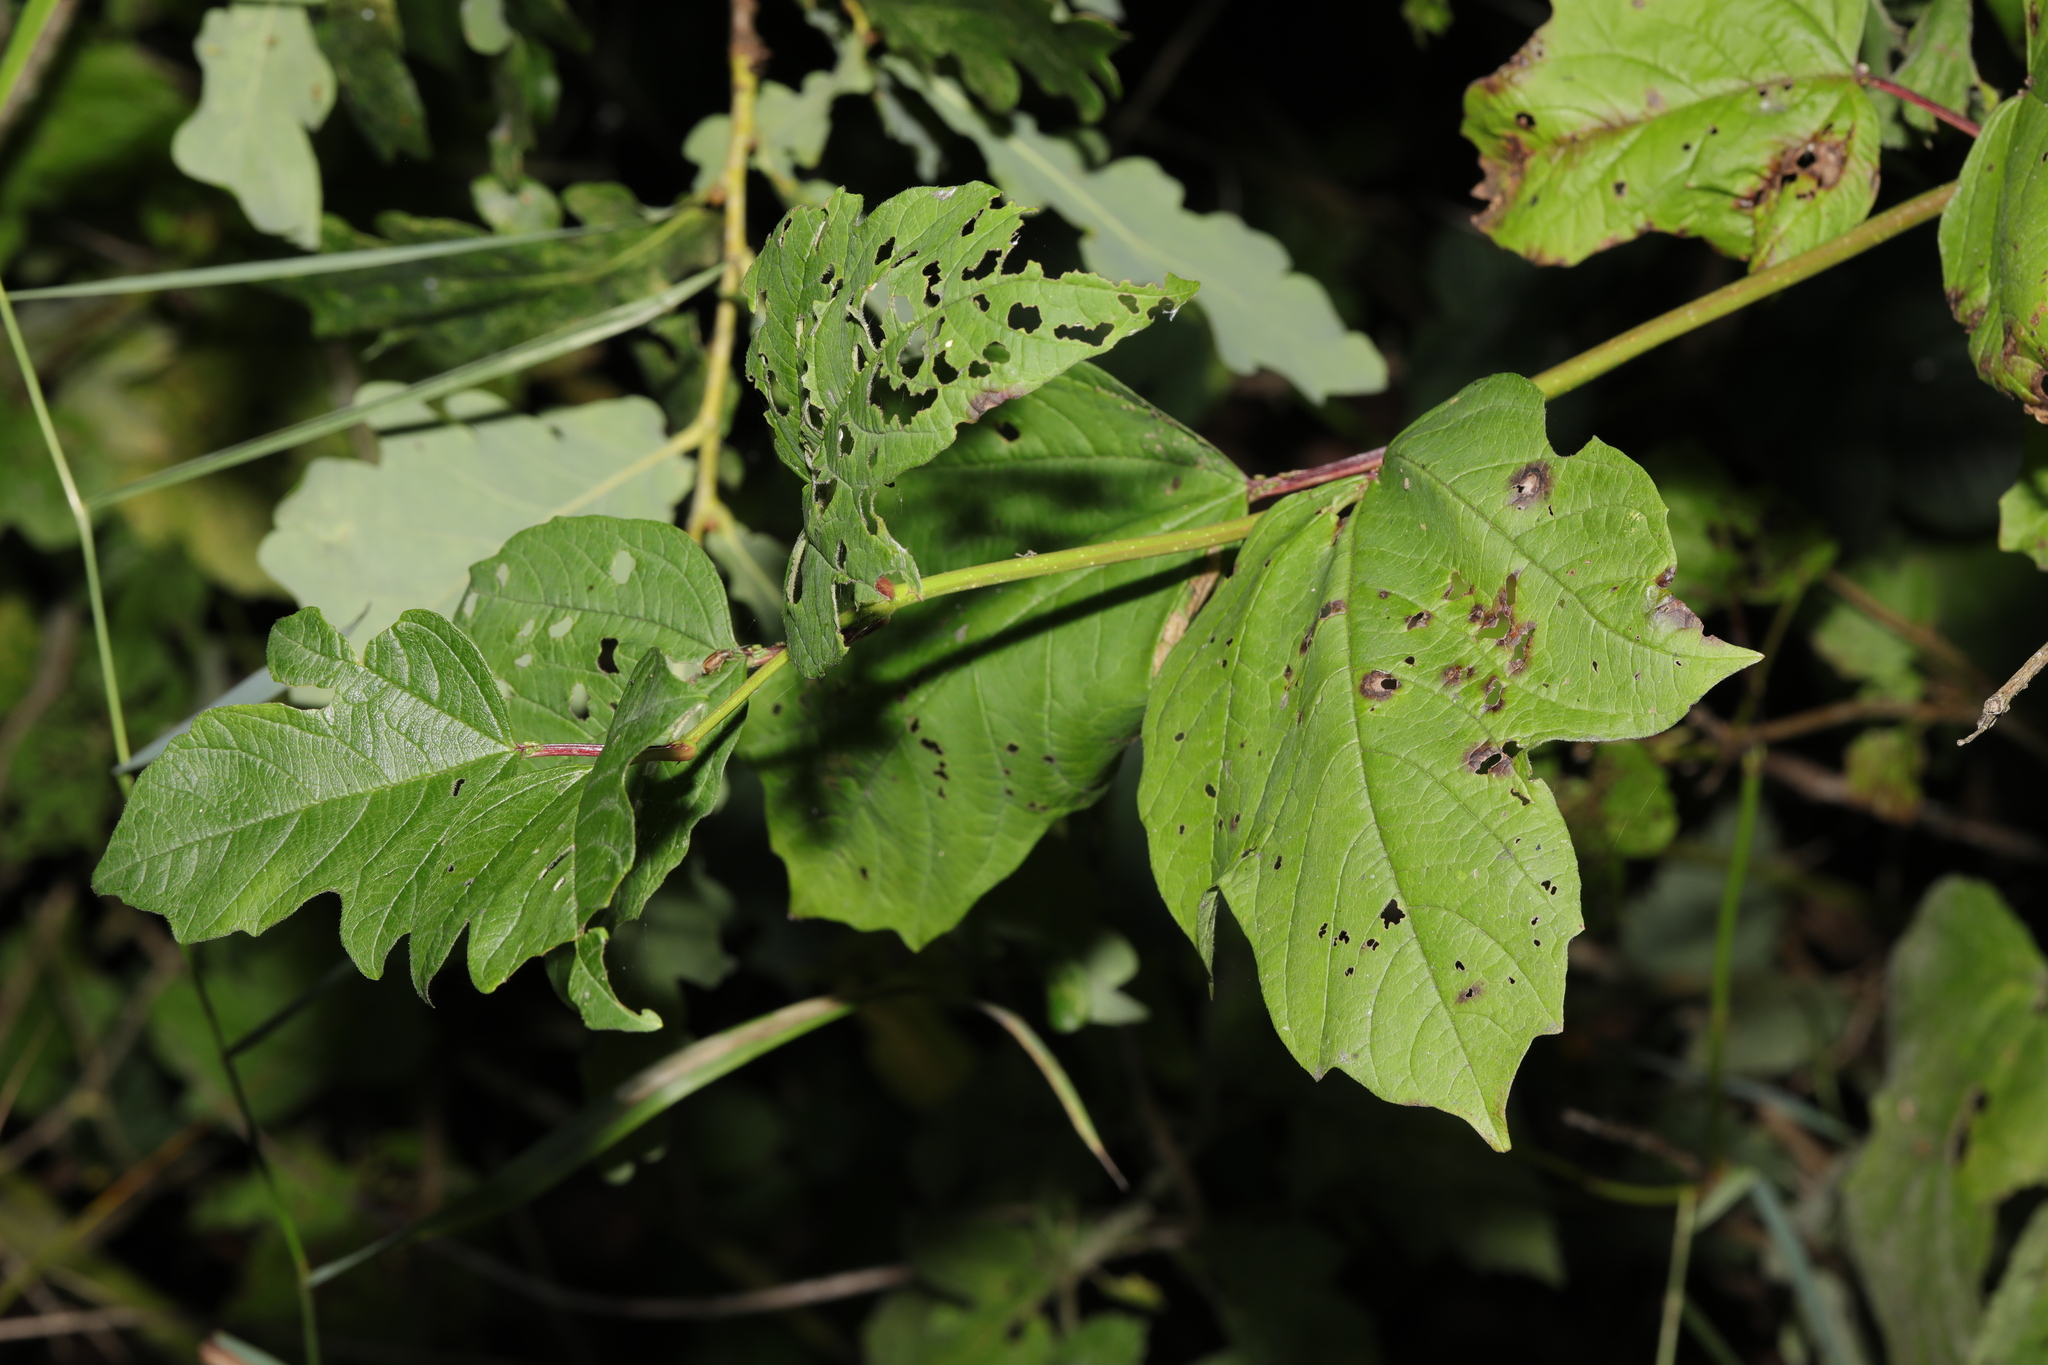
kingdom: Plantae
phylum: Tracheophyta
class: Magnoliopsida
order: Dipsacales
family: Viburnaceae
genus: Viburnum
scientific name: Viburnum opulus
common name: Guelder-rose
